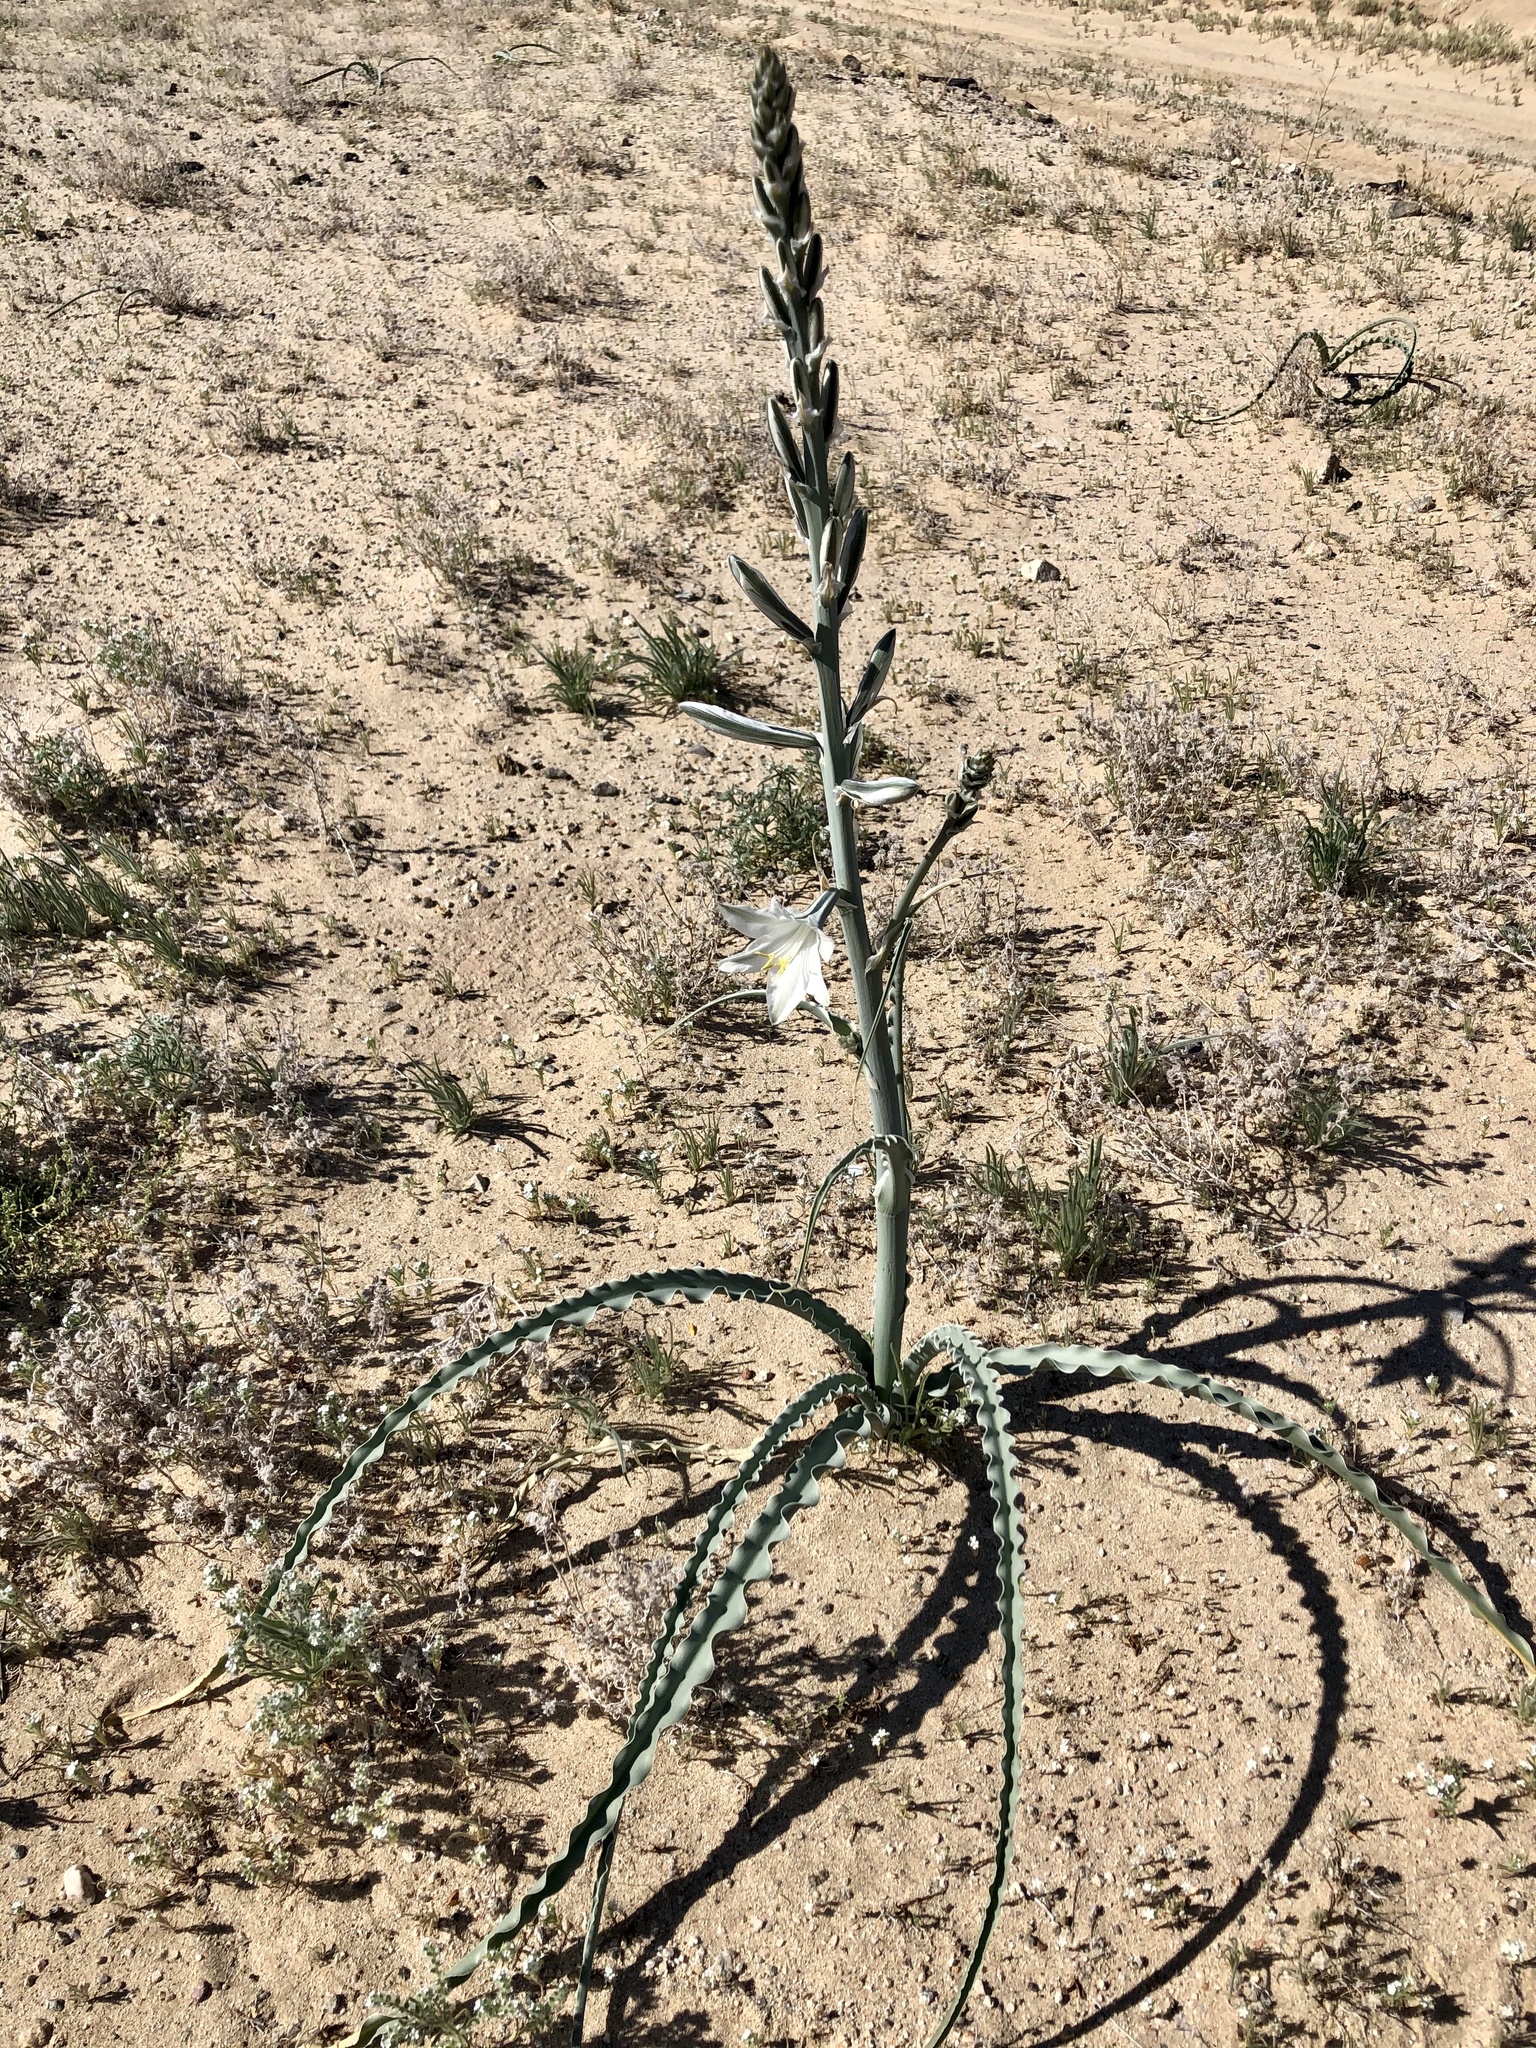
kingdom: Plantae
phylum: Tracheophyta
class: Liliopsida
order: Asparagales
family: Asparagaceae
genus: Hesperocallis
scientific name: Hesperocallis undulata
